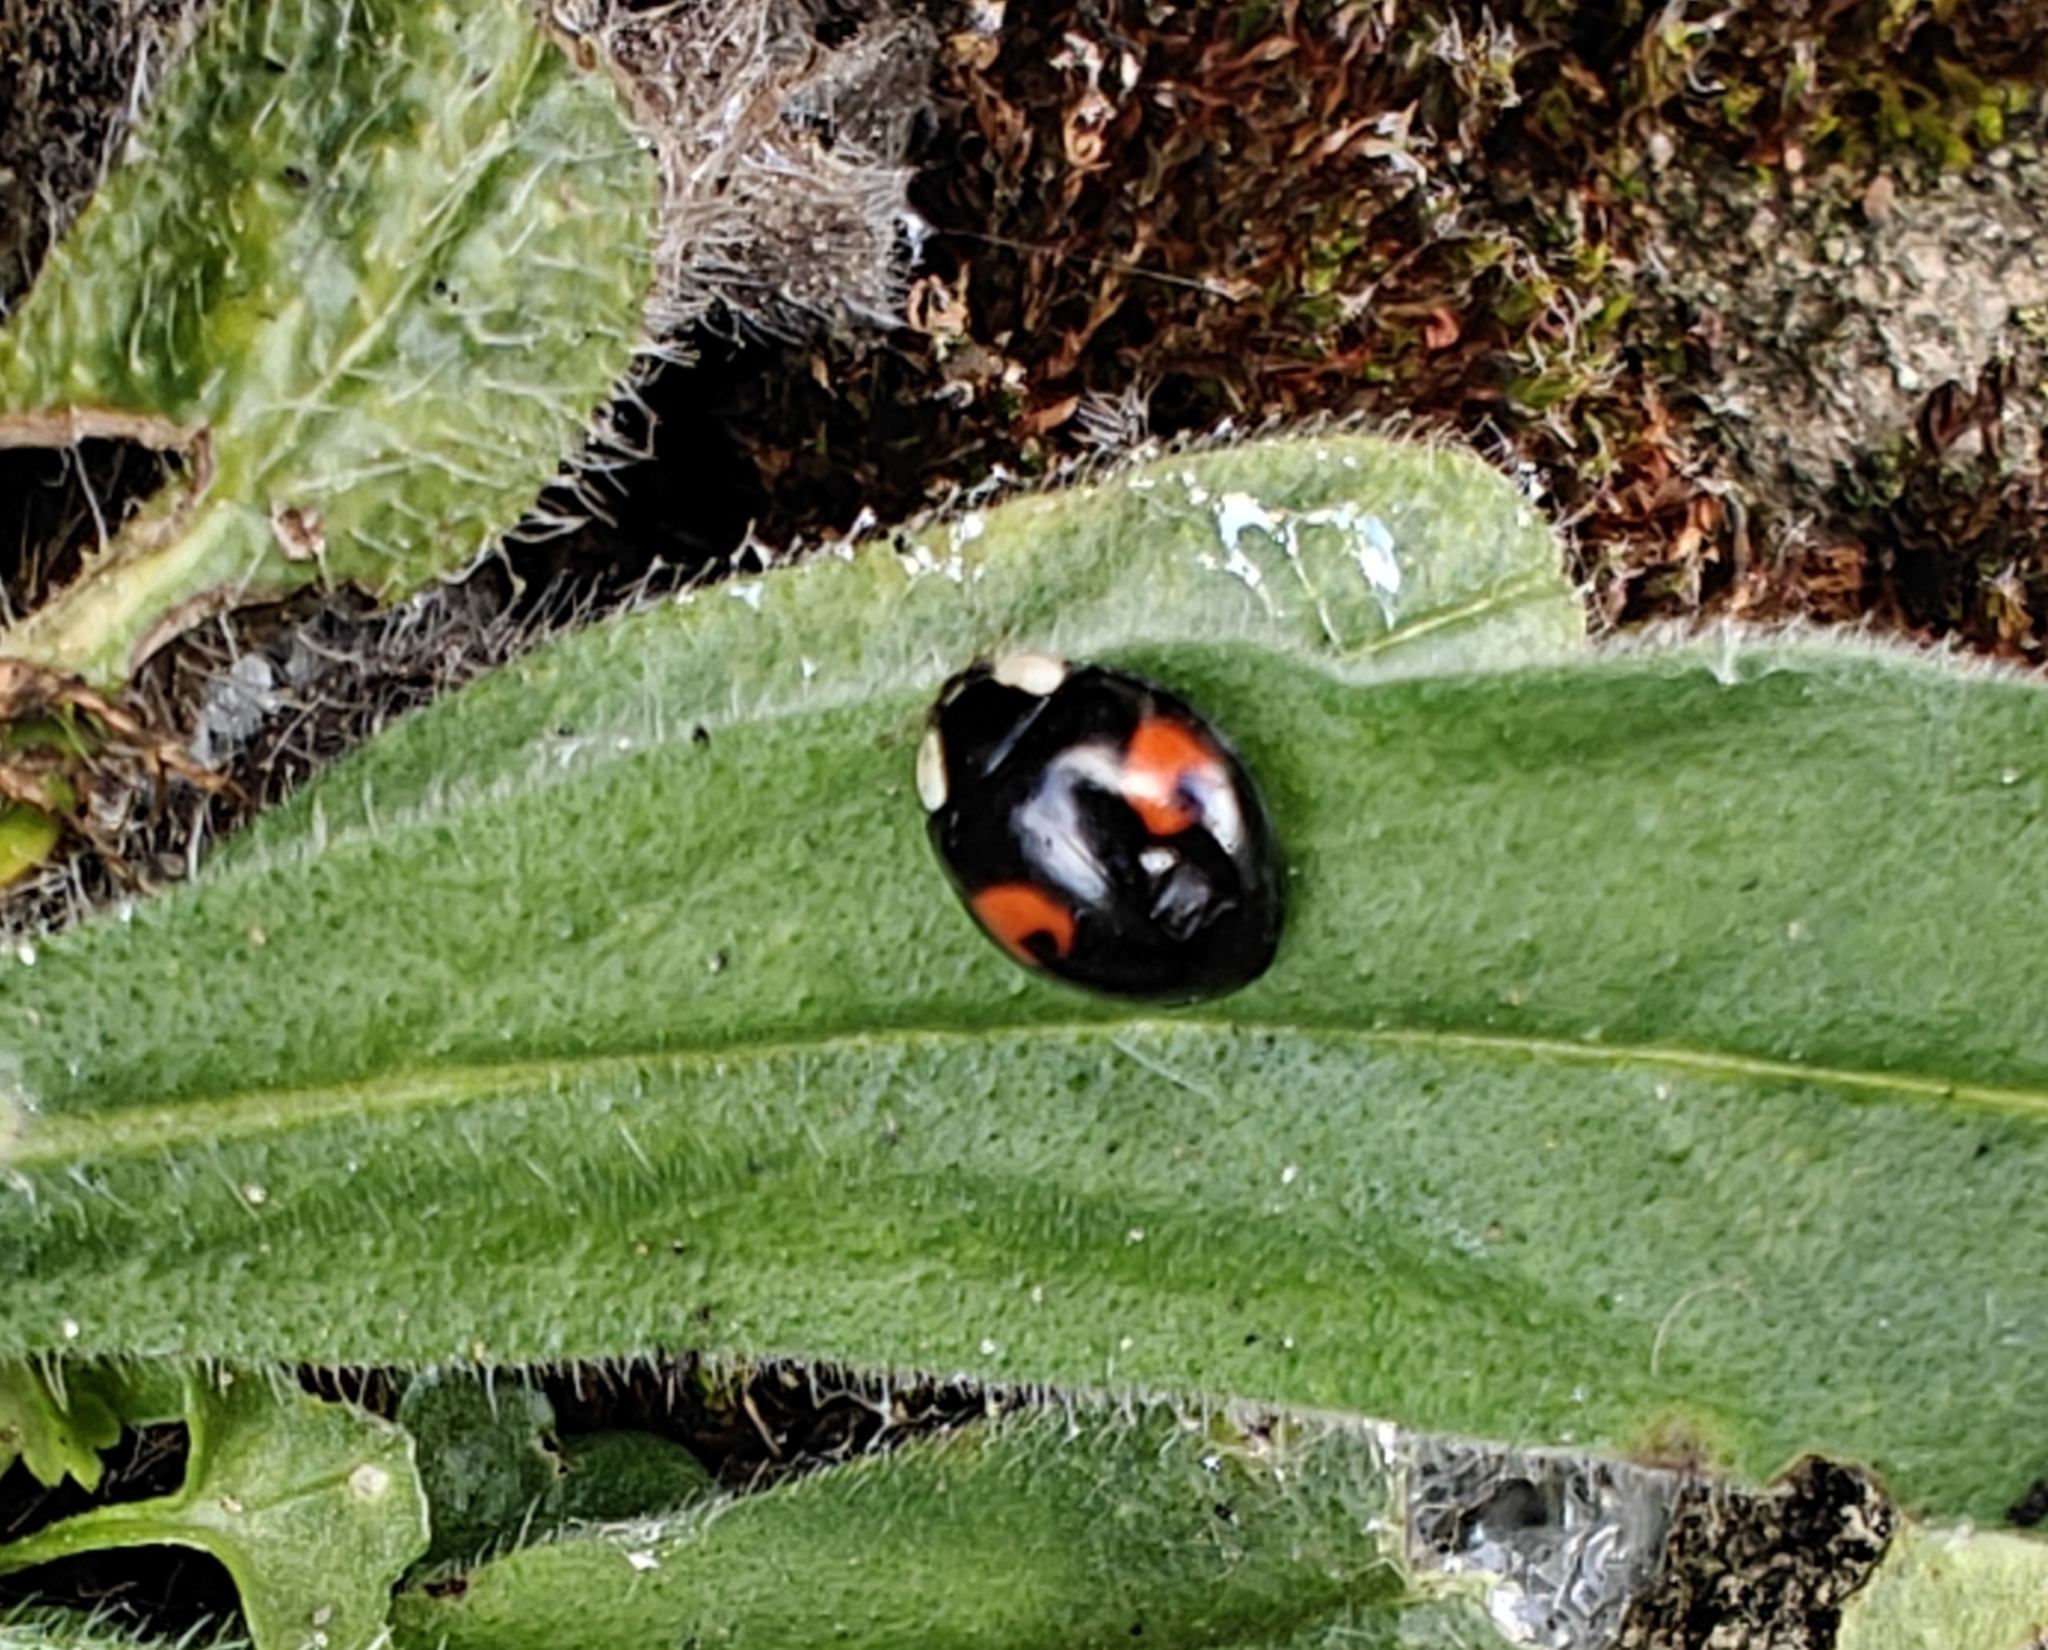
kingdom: Animalia
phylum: Arthropoda
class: Insecta
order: Coleoptera
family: Coccinellidae
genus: Harmonia
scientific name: Harmonia axyridis
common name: Harlequin ladybird
